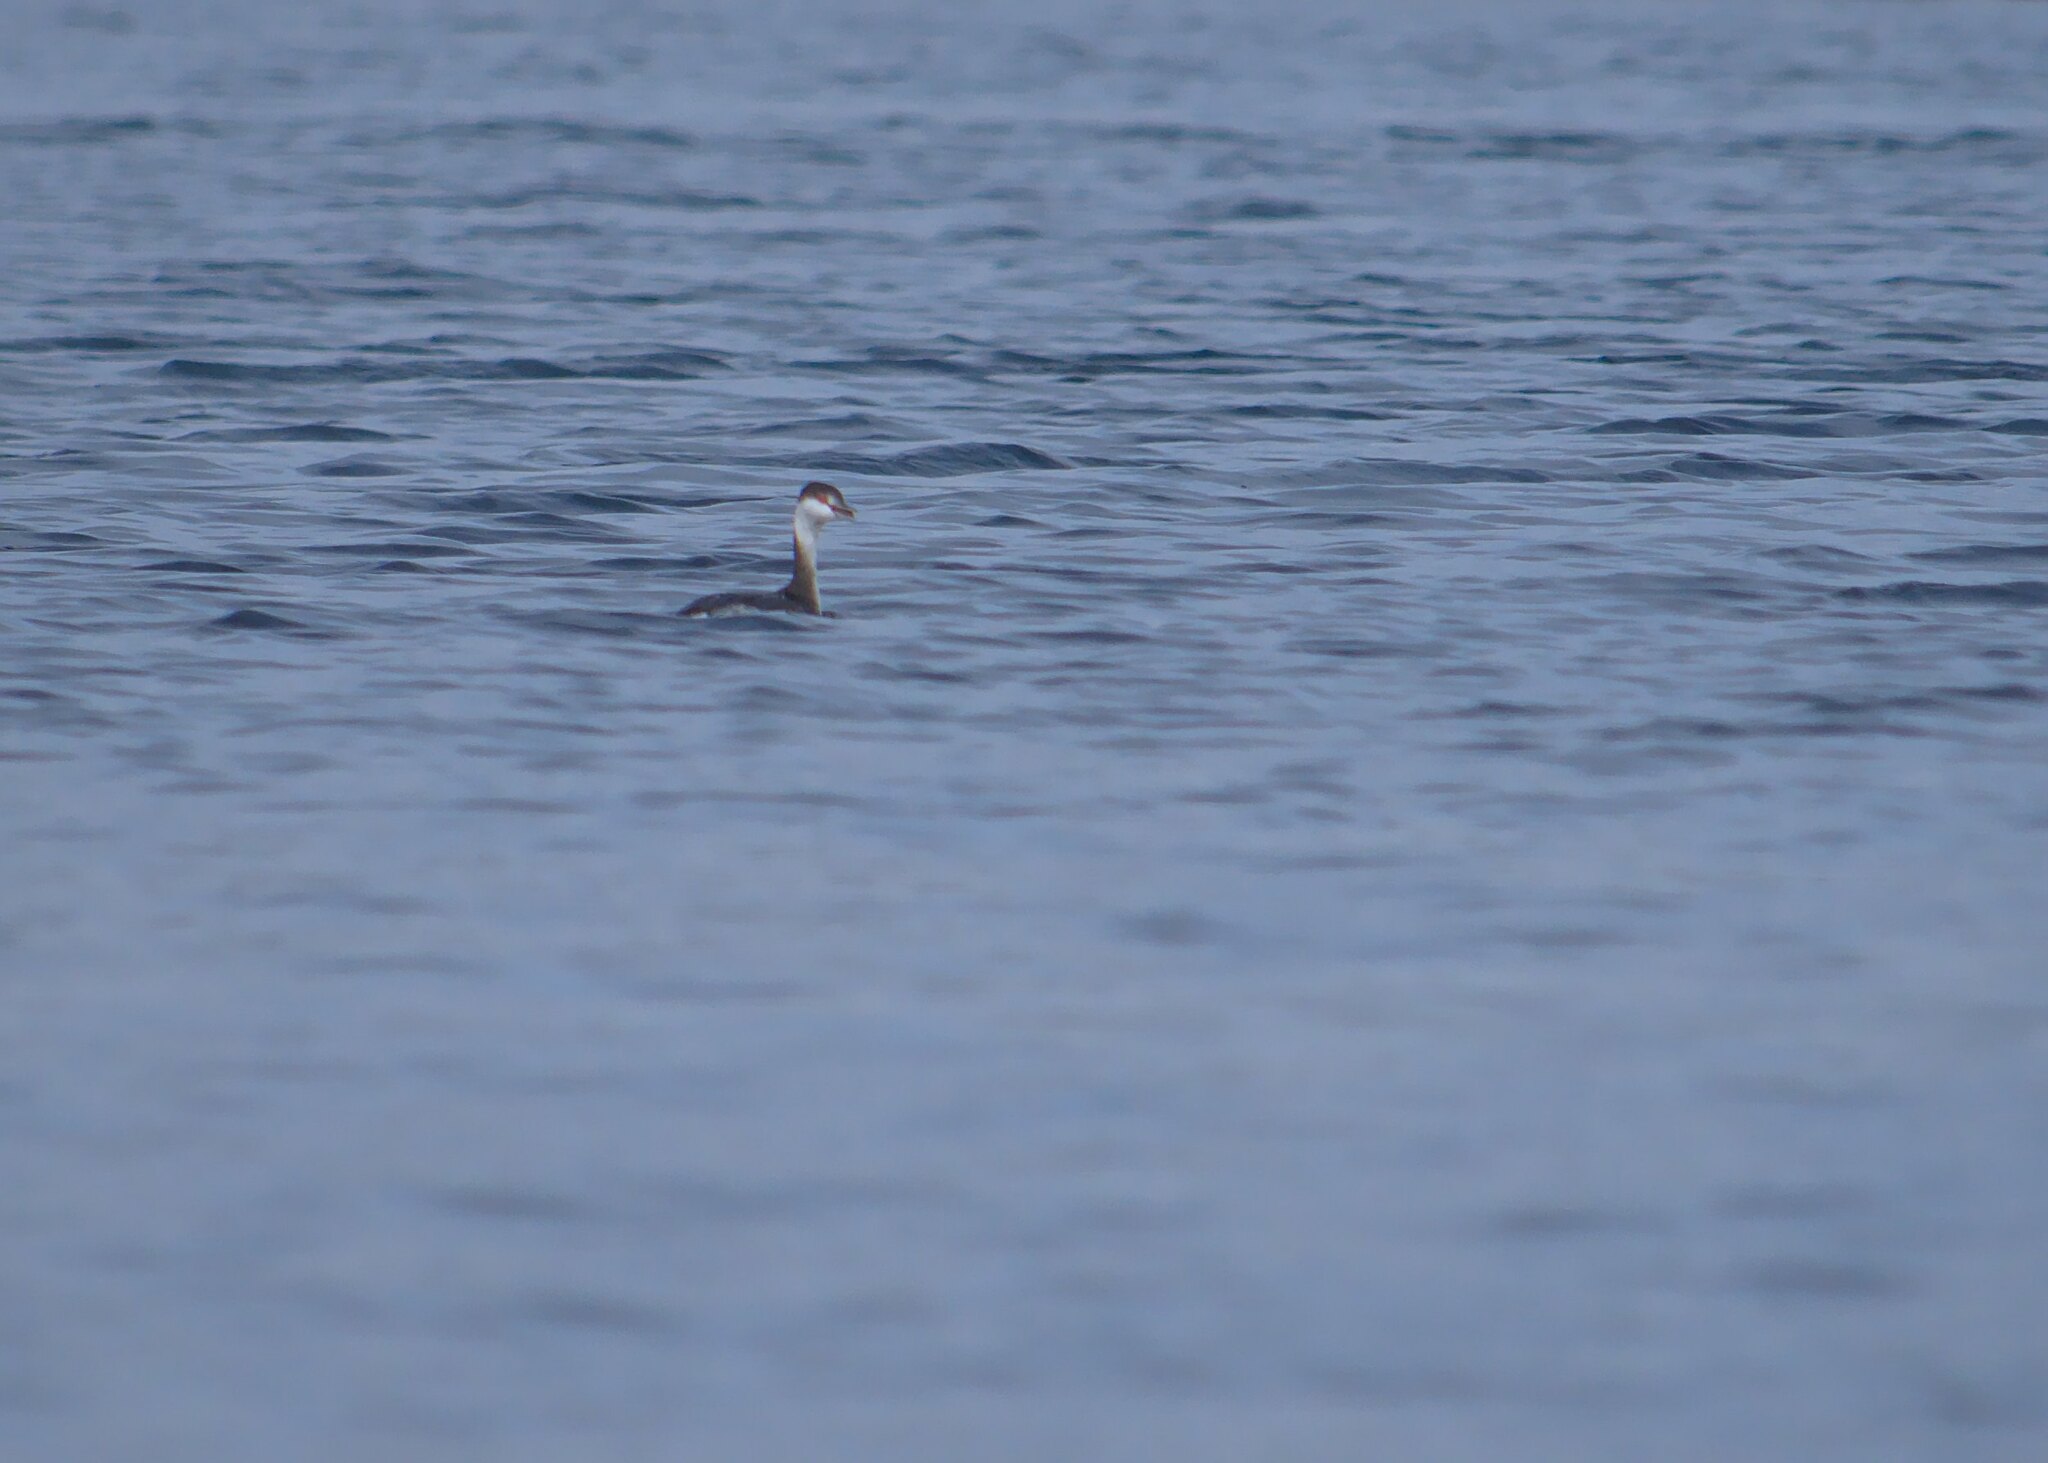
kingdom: Animalia
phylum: Chordata
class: Aves
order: Podicipediformes
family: Podicipedidae
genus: Podiceps
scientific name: Podiceps auritus
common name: Horned grebe
